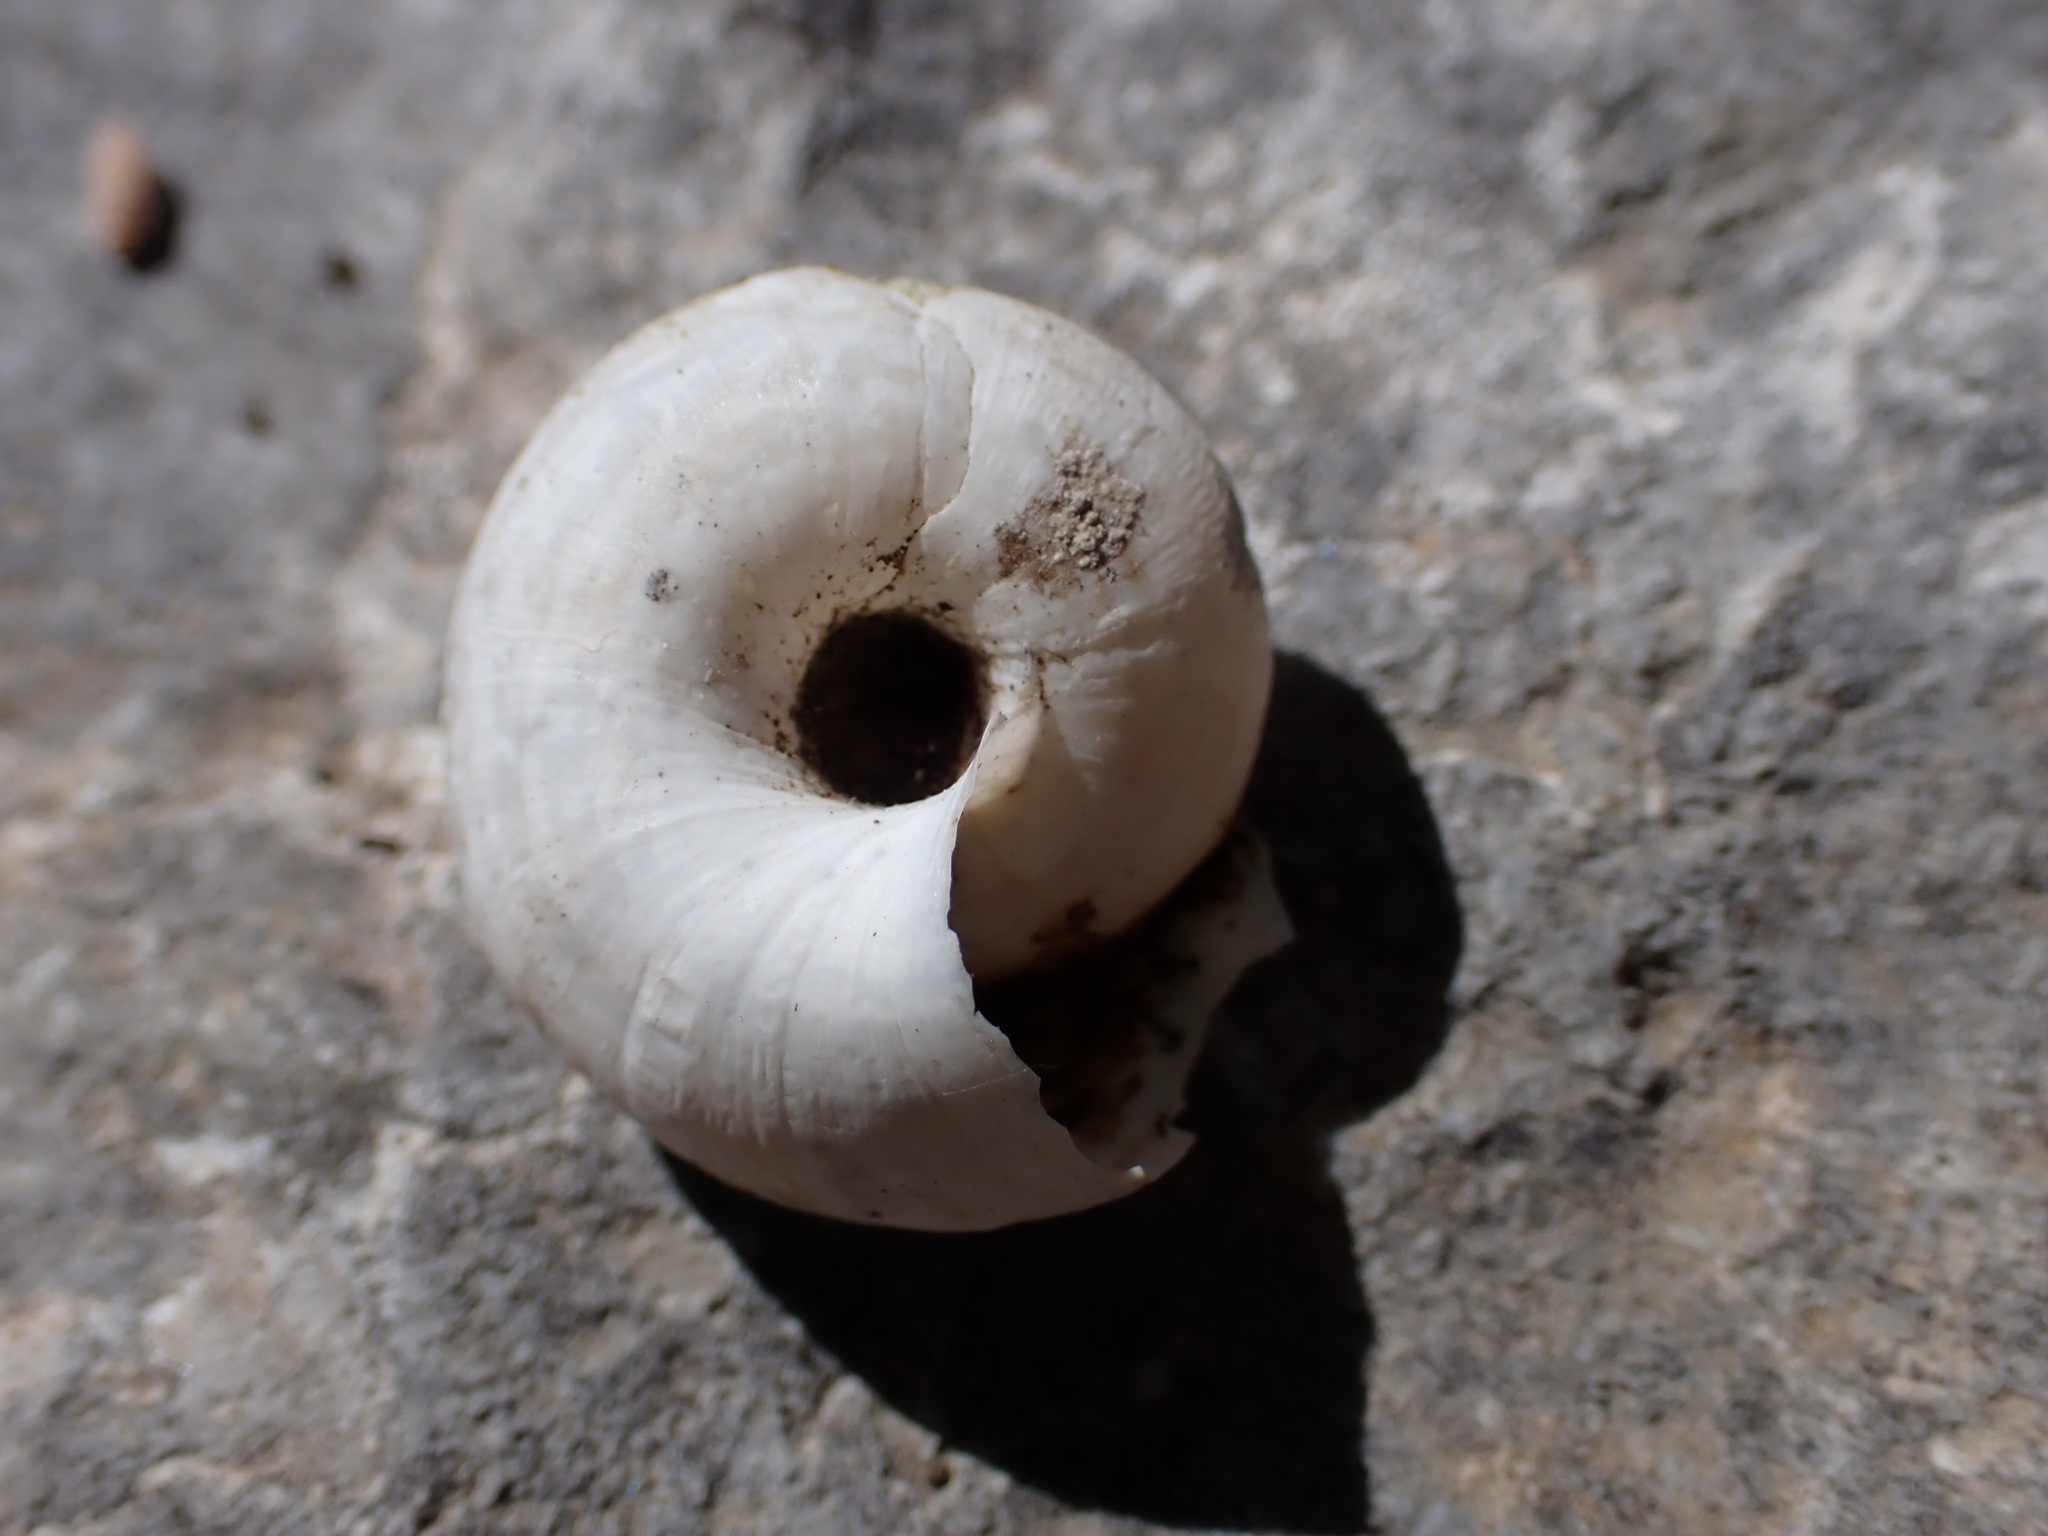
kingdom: Animalia
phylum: Mollusca
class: Gastropoda
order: Stylommatophora
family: Geomitridae
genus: Xerosecta
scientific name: Xerosecta cespitum
